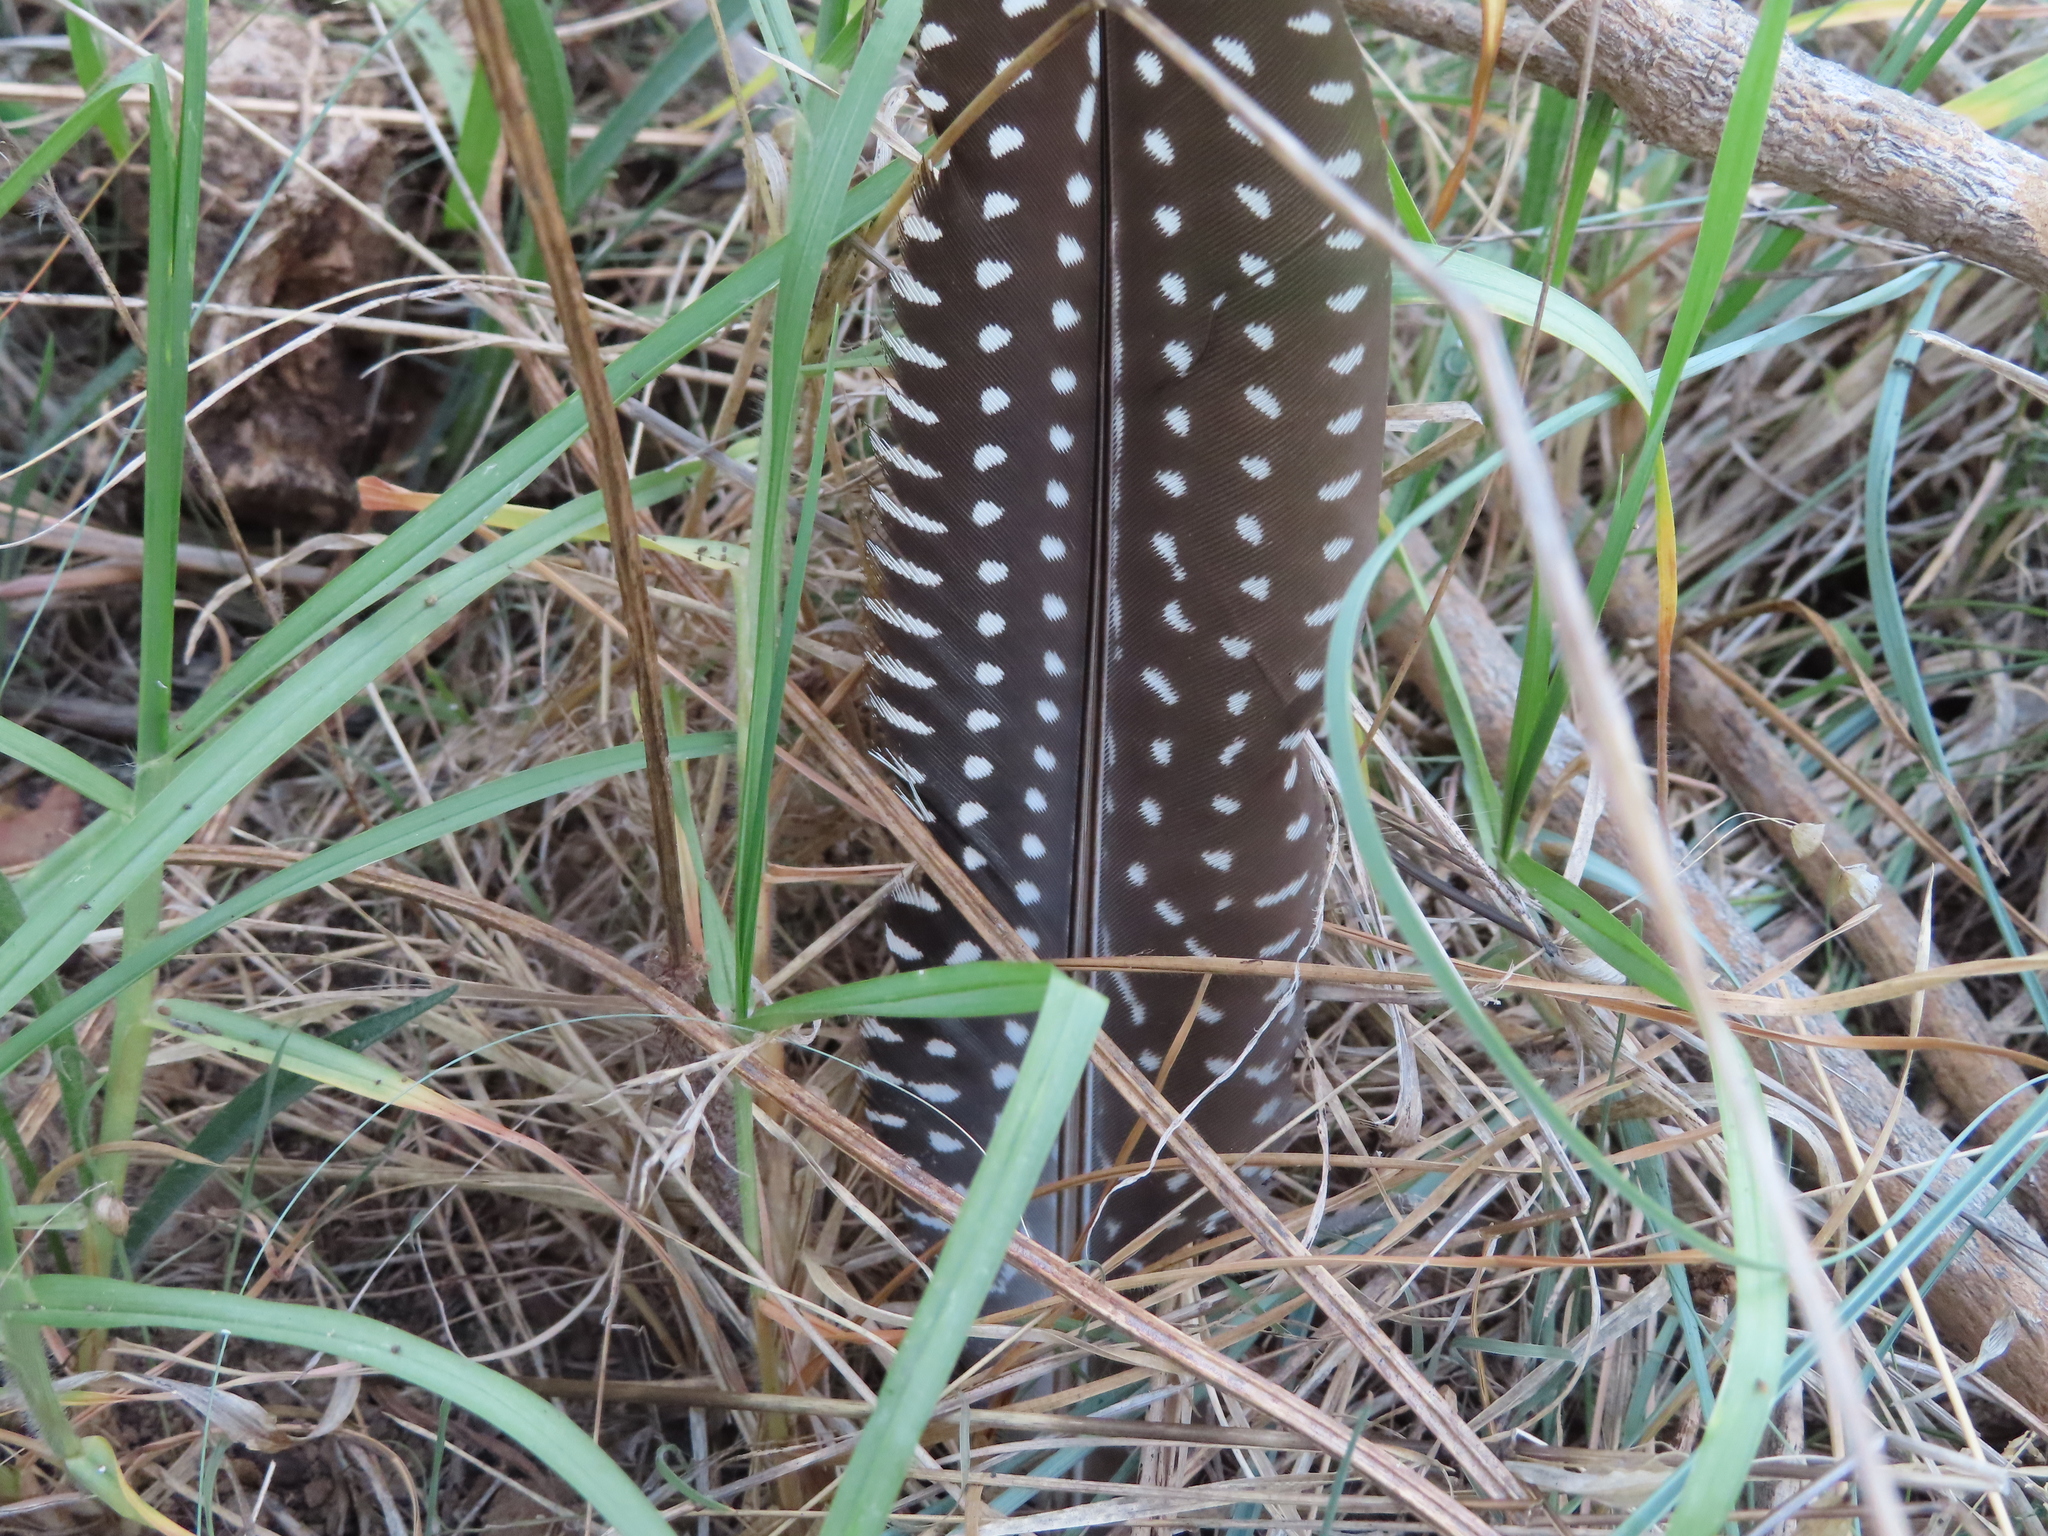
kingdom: Animalia
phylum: Chordata
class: Aves
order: Galliformes
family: Numididae
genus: Numida
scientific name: Numida meleagris
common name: Helmeted guineafowl
